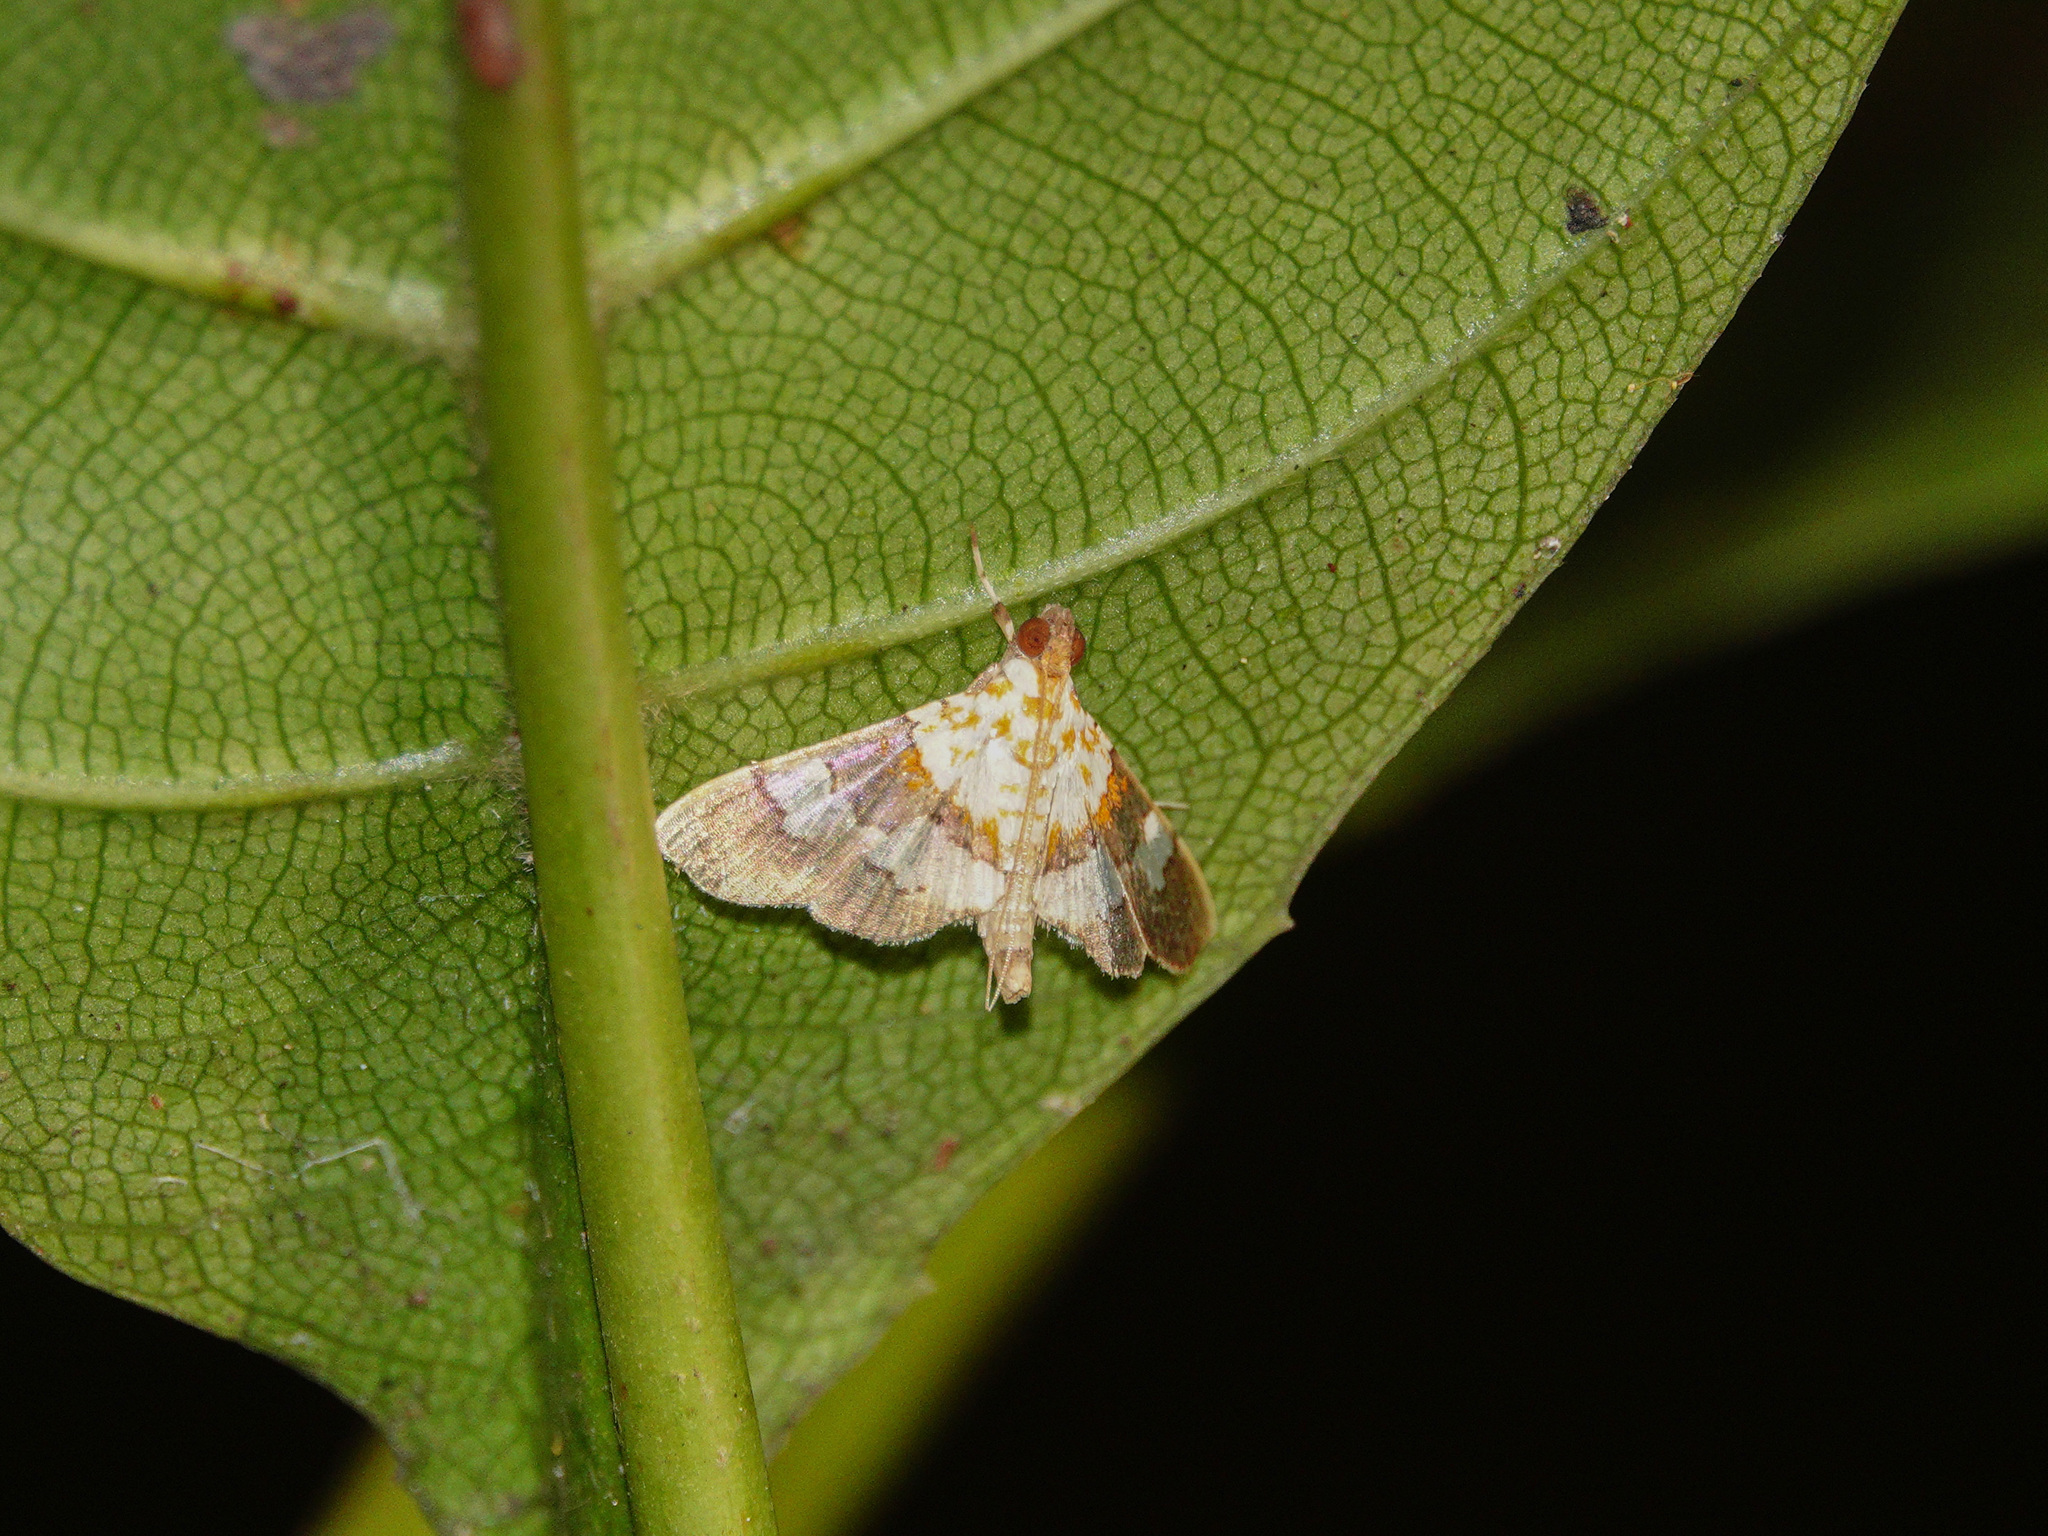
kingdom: Animalia
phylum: Arthropoda
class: Insecta
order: Lepidoptera
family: Crambidae
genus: Aetholix
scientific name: Aetholix flavibasalis
